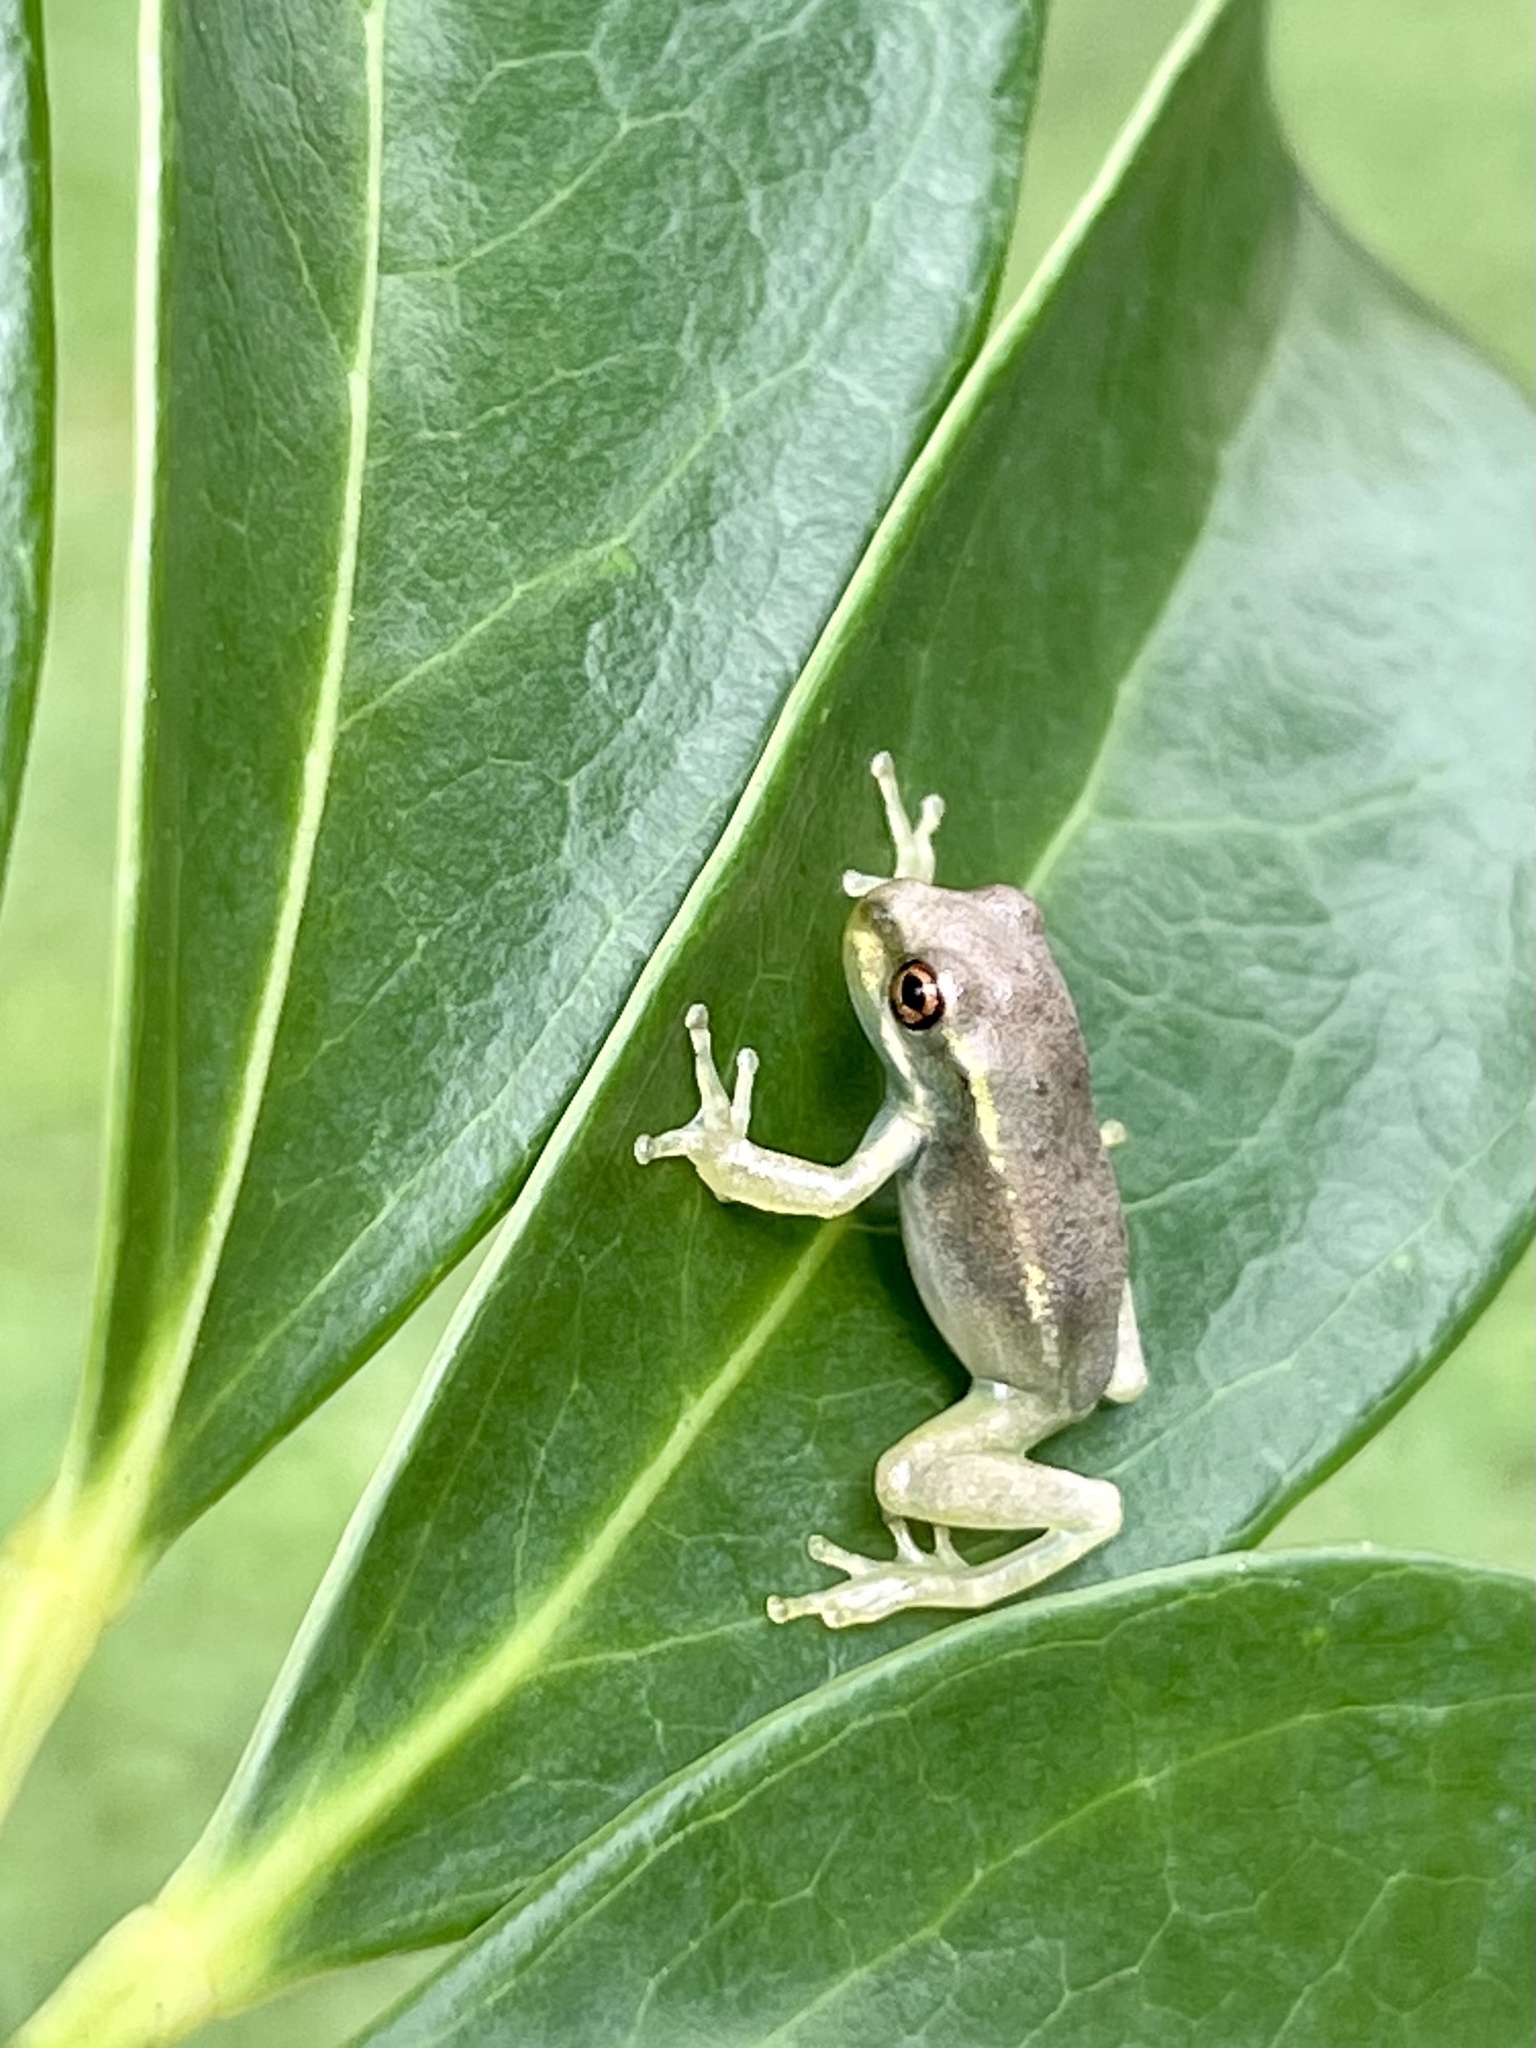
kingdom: Animalia
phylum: Chordata
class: Amphibia
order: Anura
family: Hylidae
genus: Osteopilus
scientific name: Osteopilus septentrionalis
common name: Cuban treefrog
